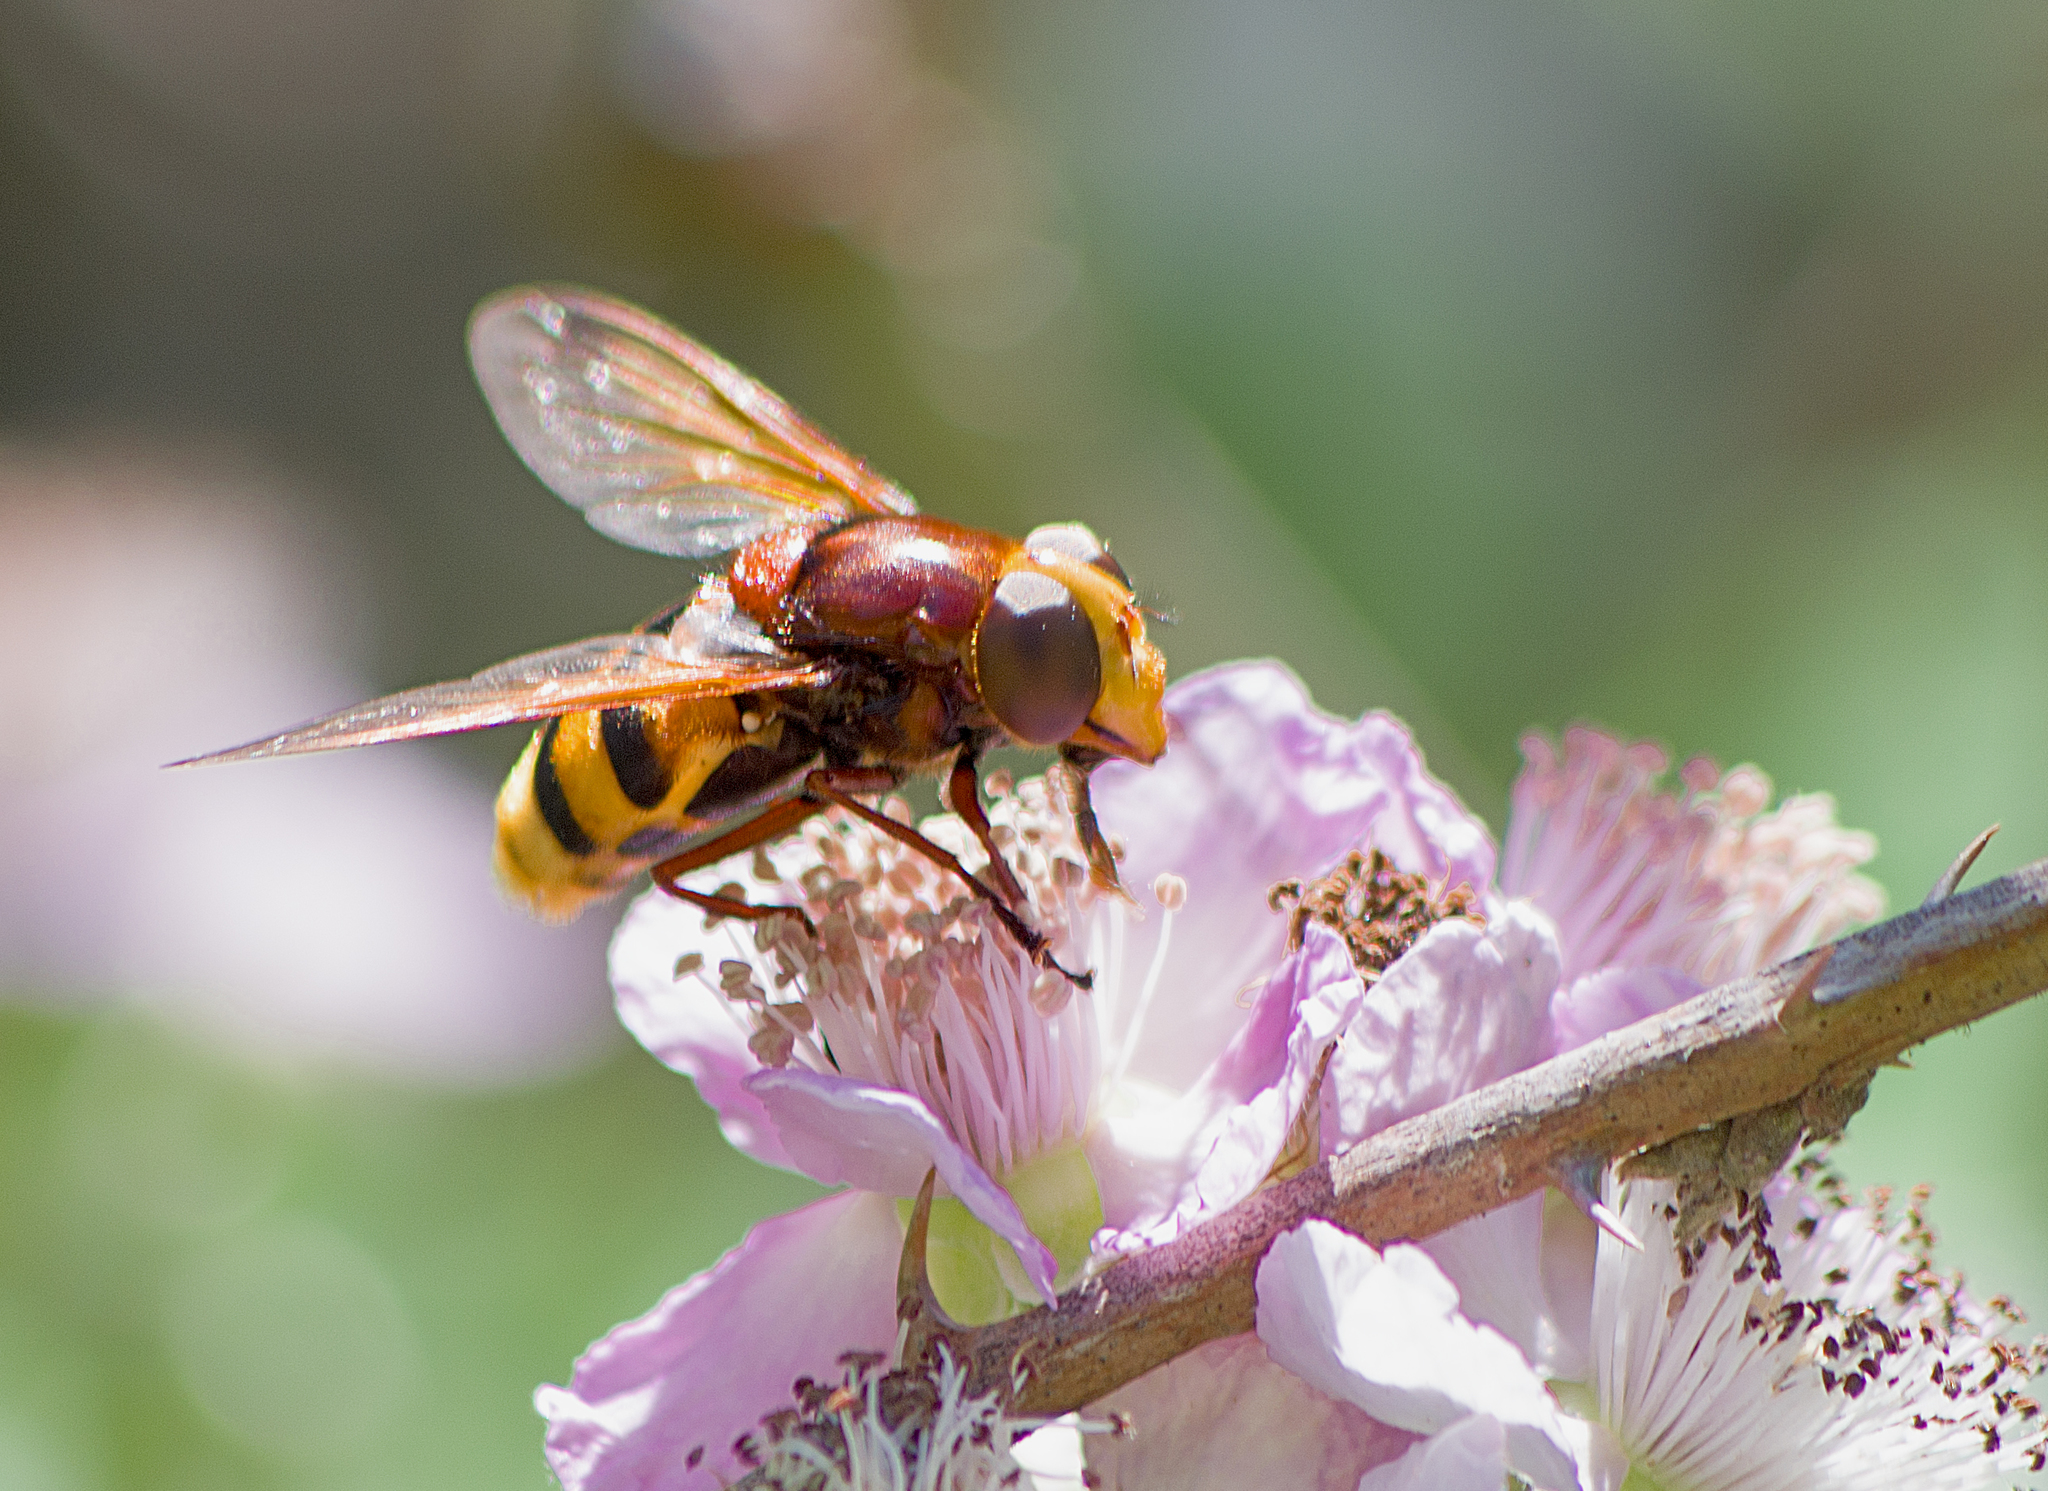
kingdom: Animalia
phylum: Arthropoda
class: Insecta
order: Diptera
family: Syrphidae
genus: Volucella
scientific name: Volucella zonaria
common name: Hornet hoverfly
